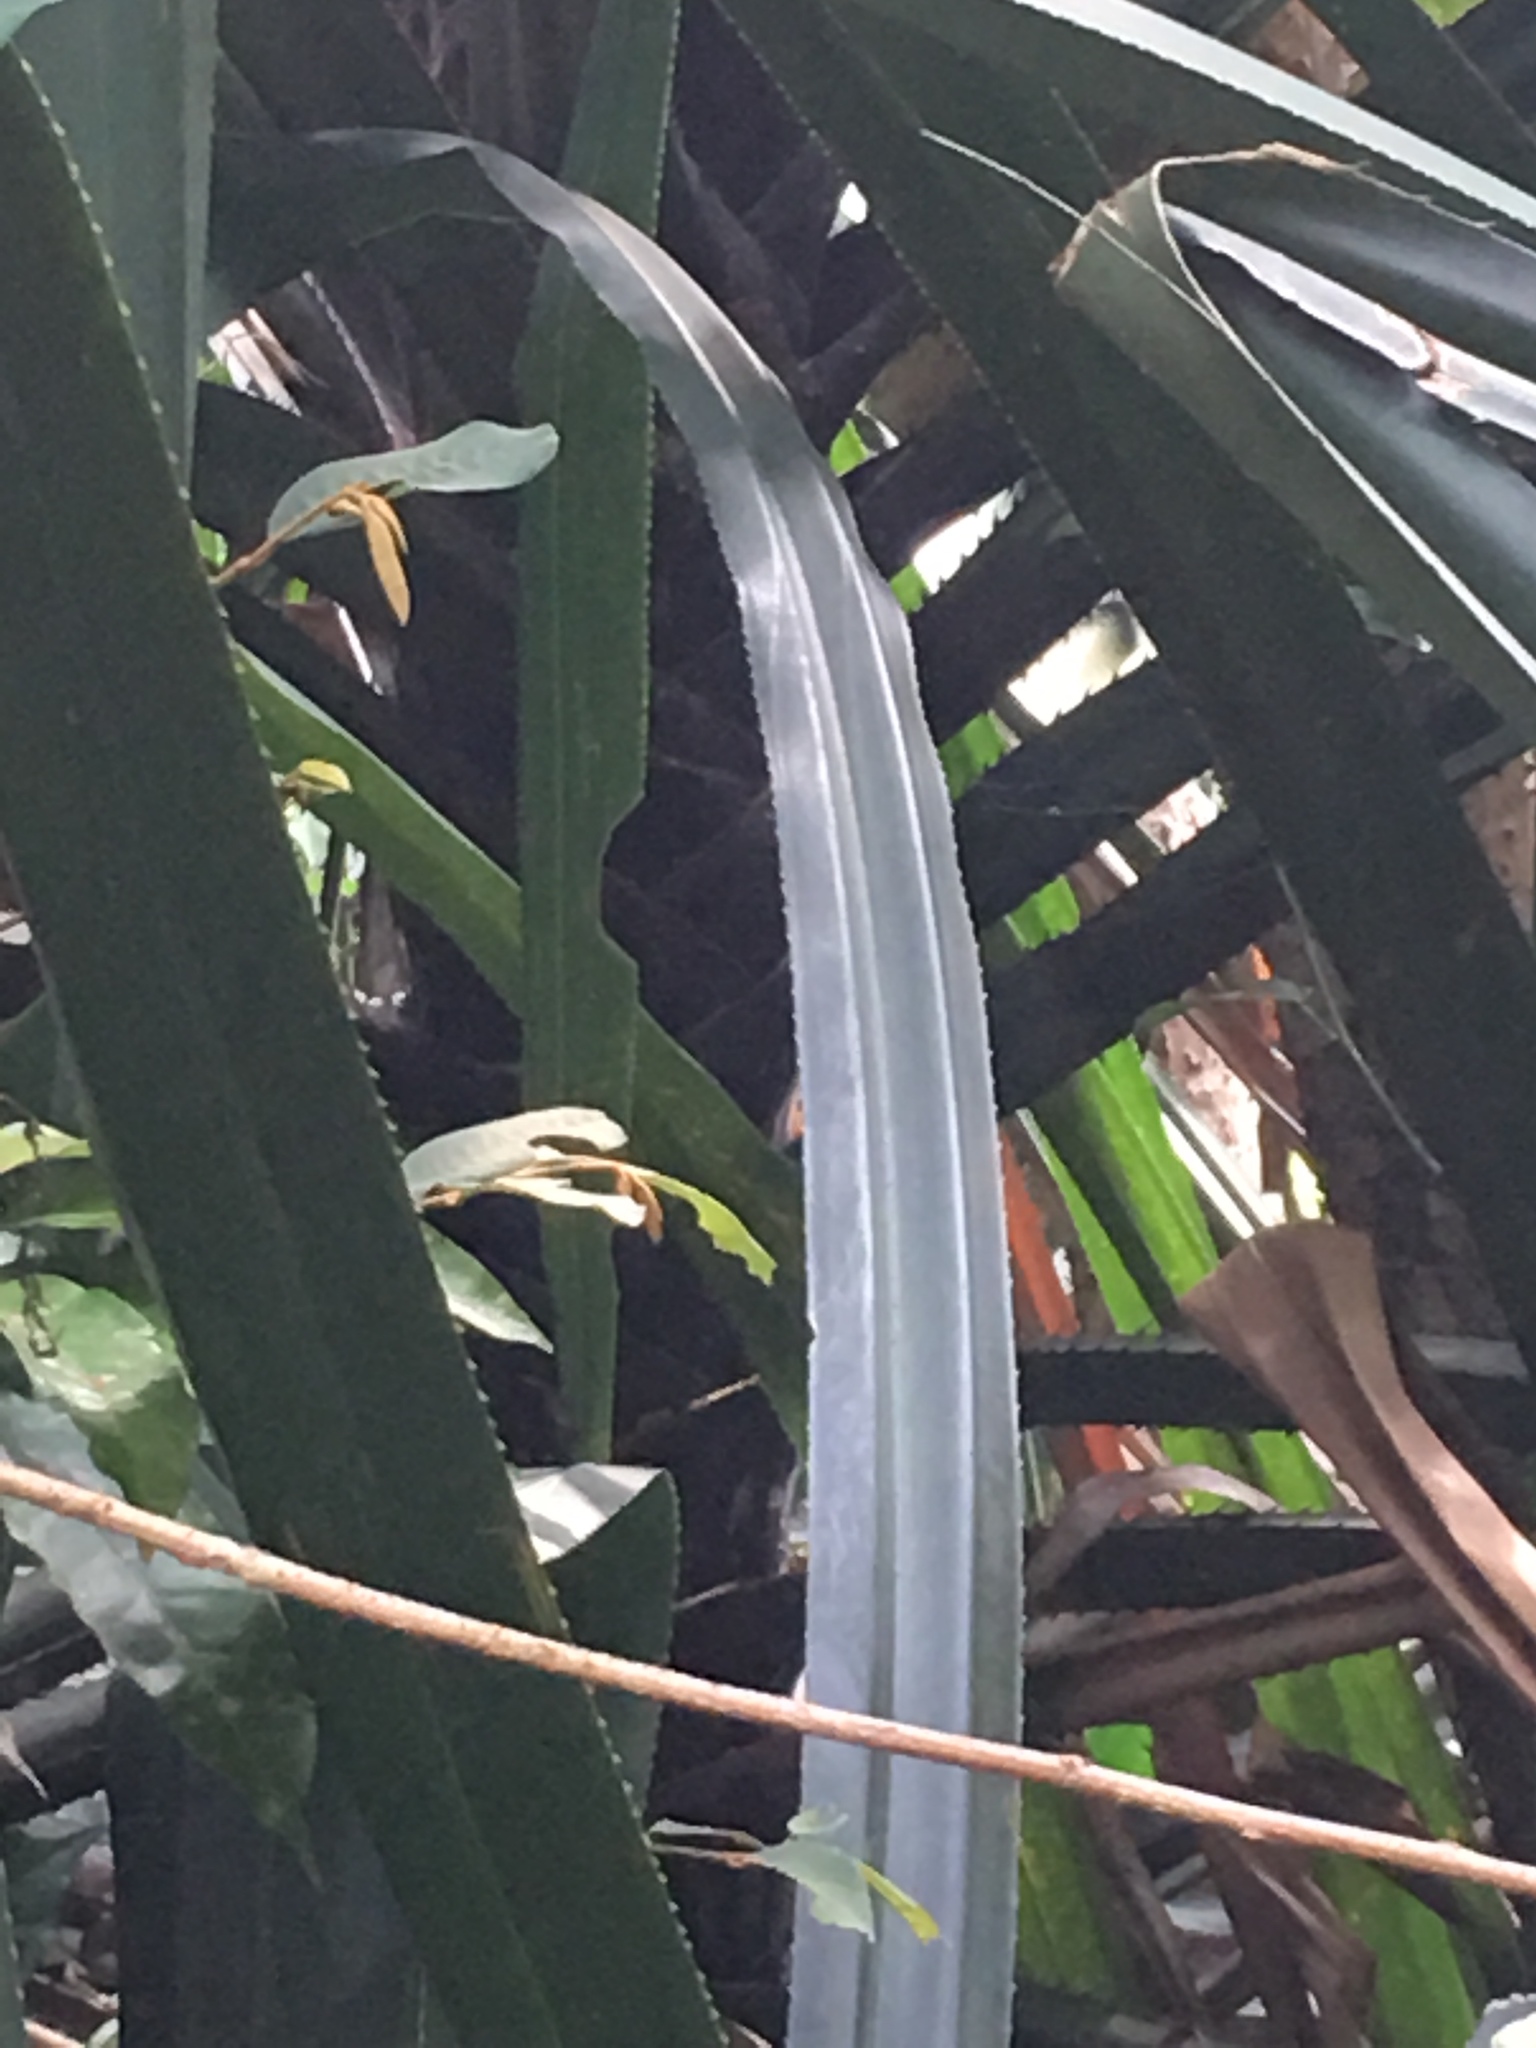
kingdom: Plantae
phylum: Tracheophyta
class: Liliopsida
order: Pandanales
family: Pandanaceae
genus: Pandanus
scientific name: Pandanus tectorius
